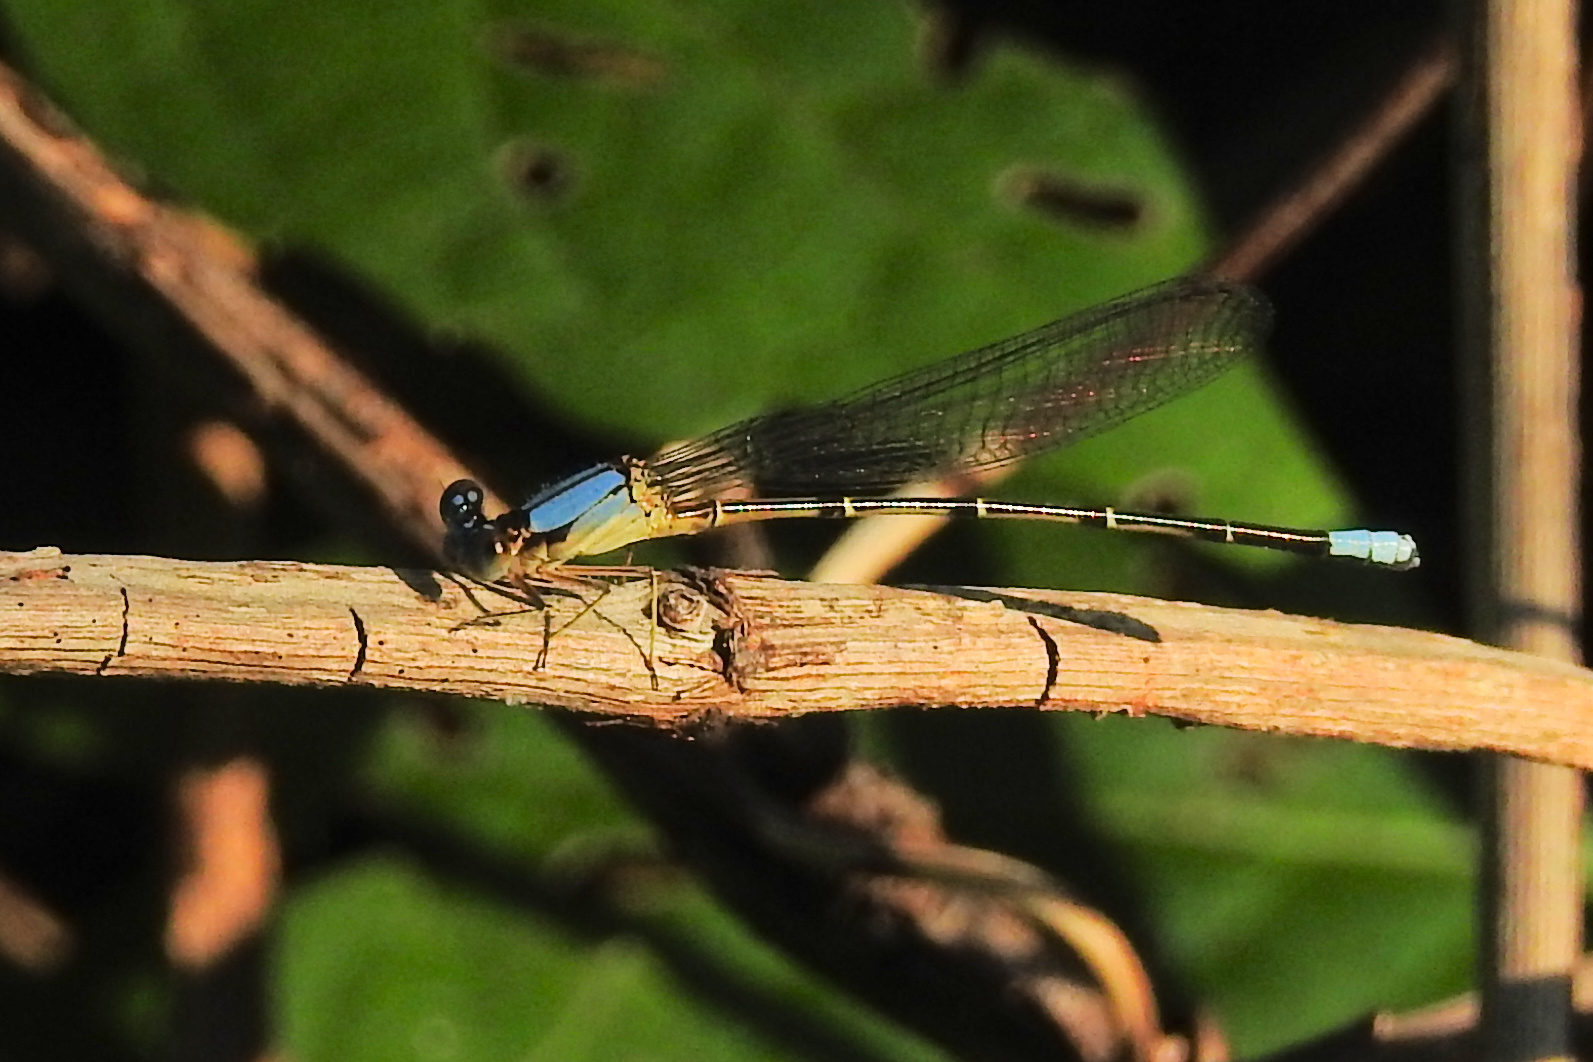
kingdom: Animalia
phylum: Arthropoda
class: Insecta
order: Odonata
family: Coenagrionidae
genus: Argia
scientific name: Argia apicalis
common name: Blue-fronted dancer
